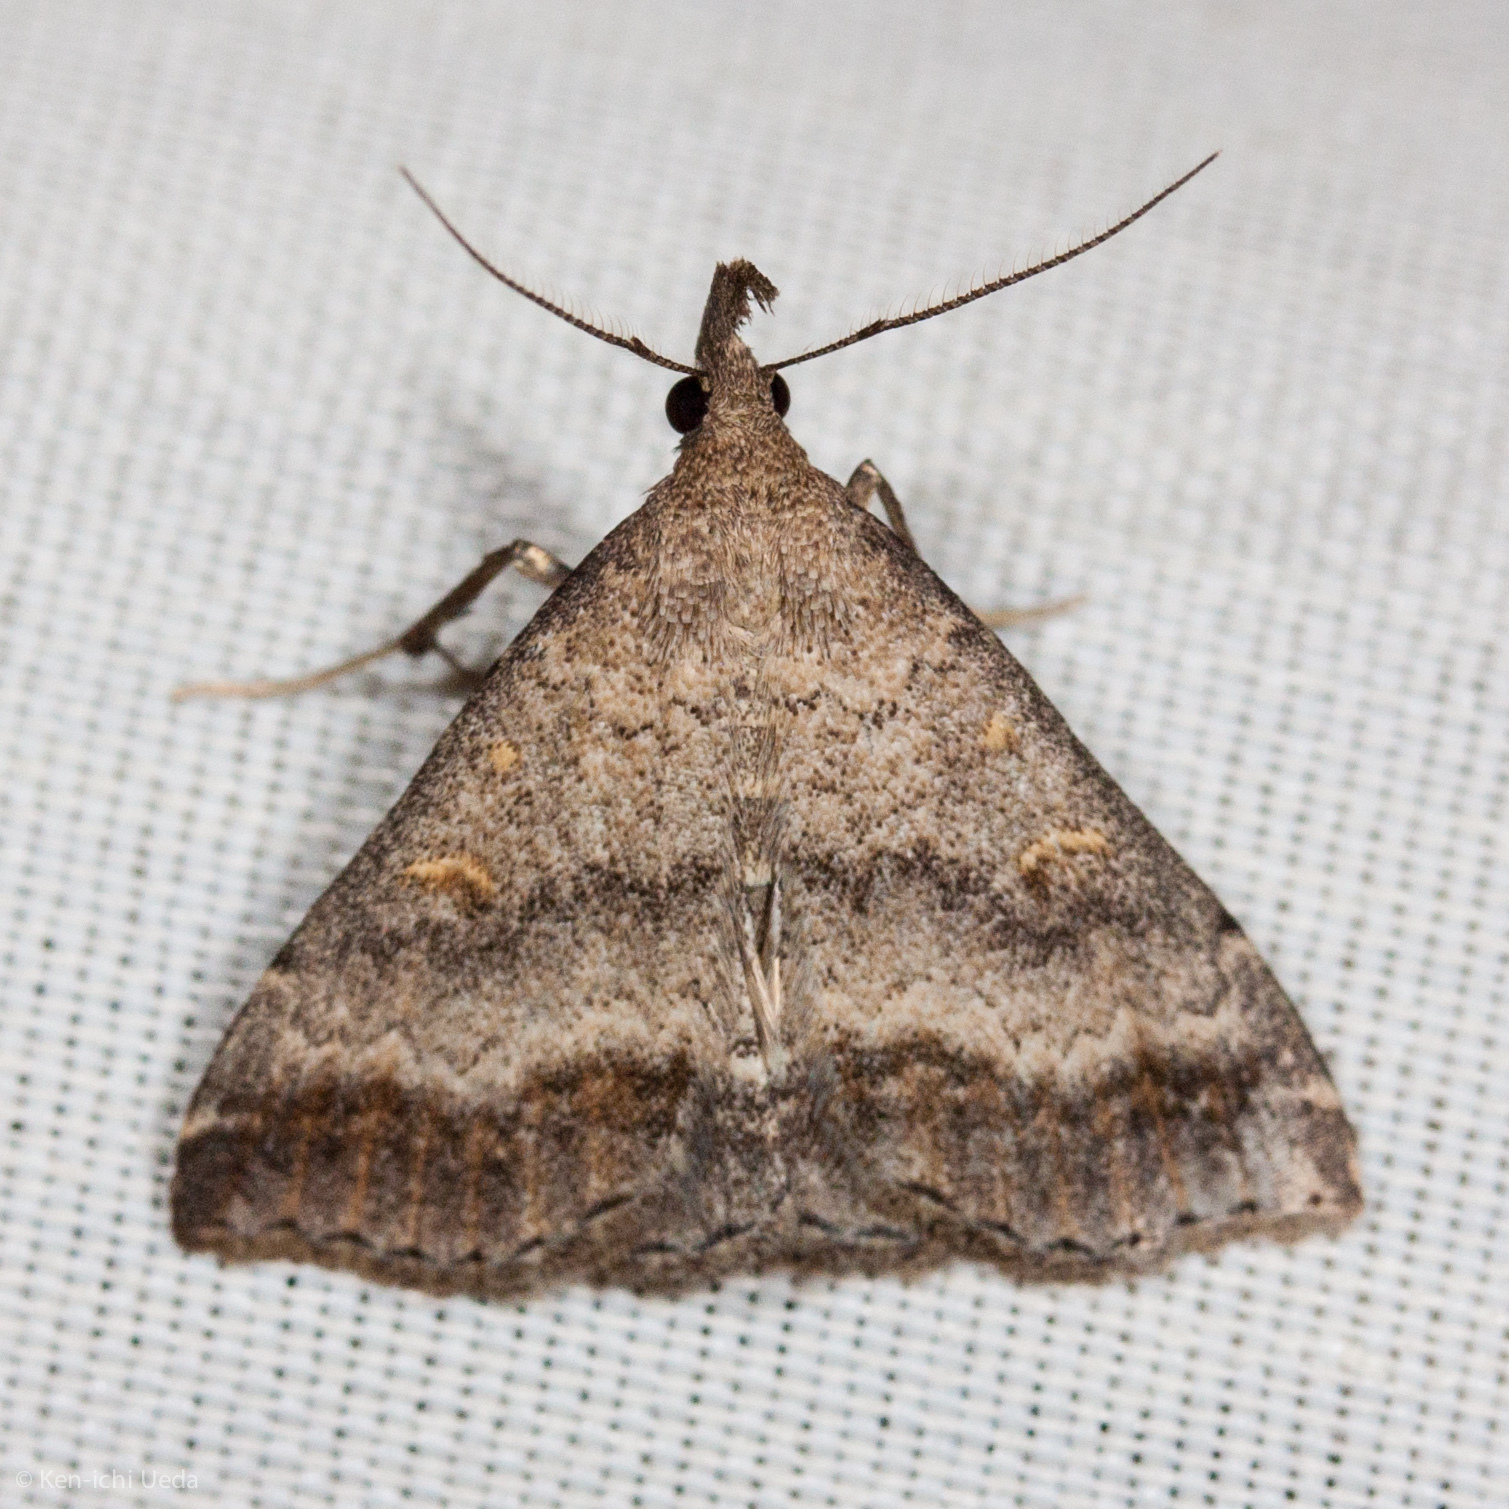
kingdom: Animalia
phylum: Arthropoda
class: Insecta
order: Lepidoptera
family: Erebidae
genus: Tetanolita
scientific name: Tetanolita palligera
